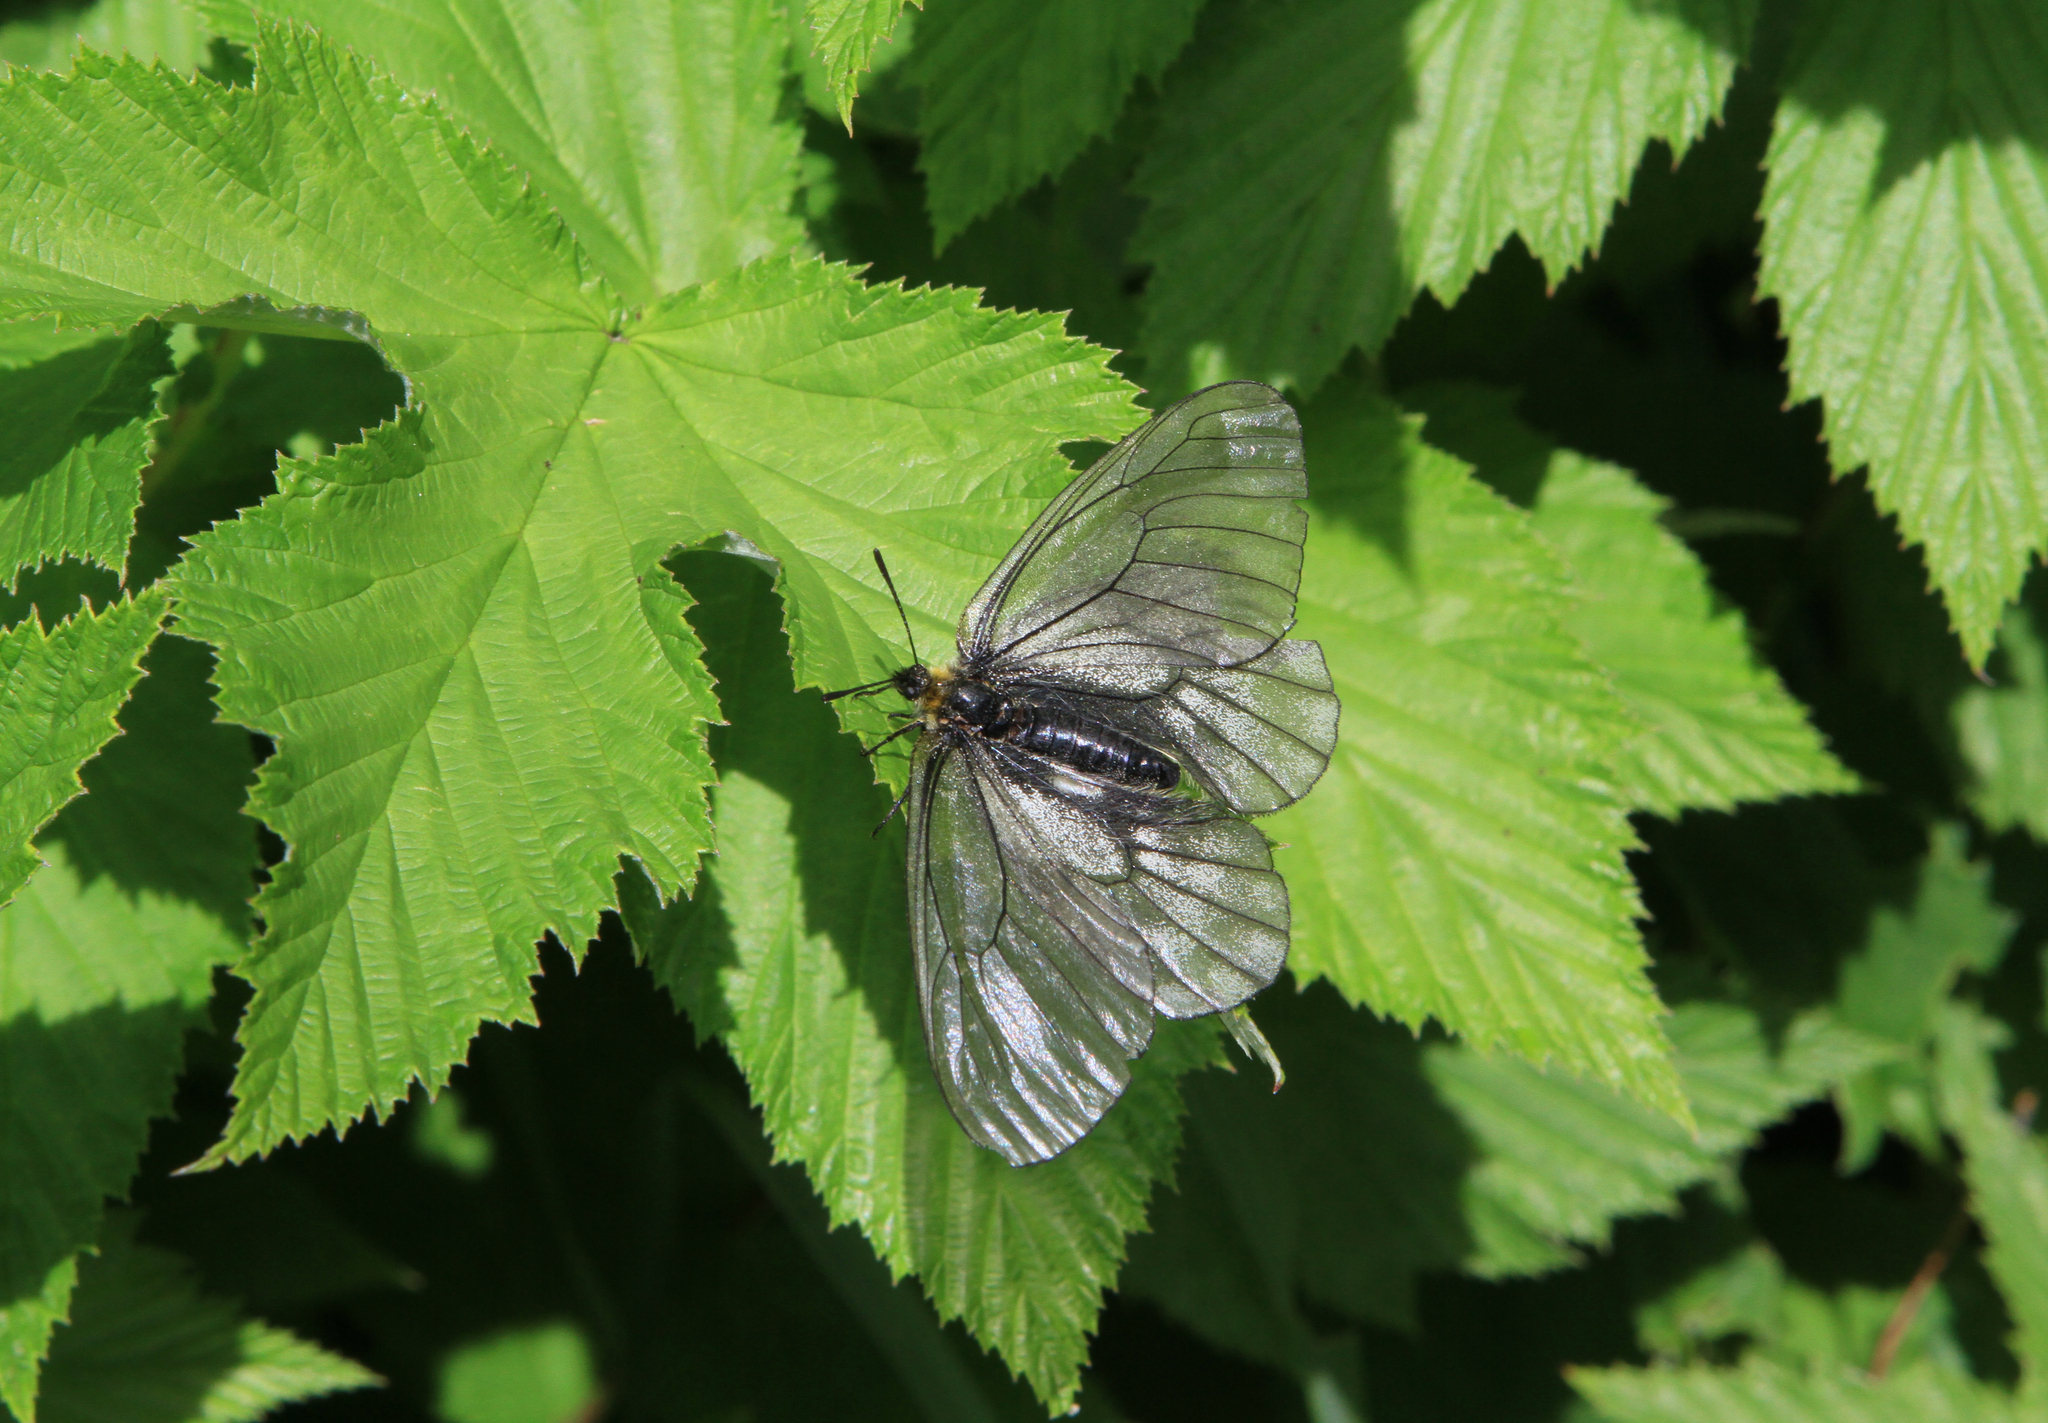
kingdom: Plantae
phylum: Tracheophyta
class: Magnoliopsida
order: Rosales
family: Cannabaceae
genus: Humulus
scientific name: Humulus lupulus
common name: Hop
